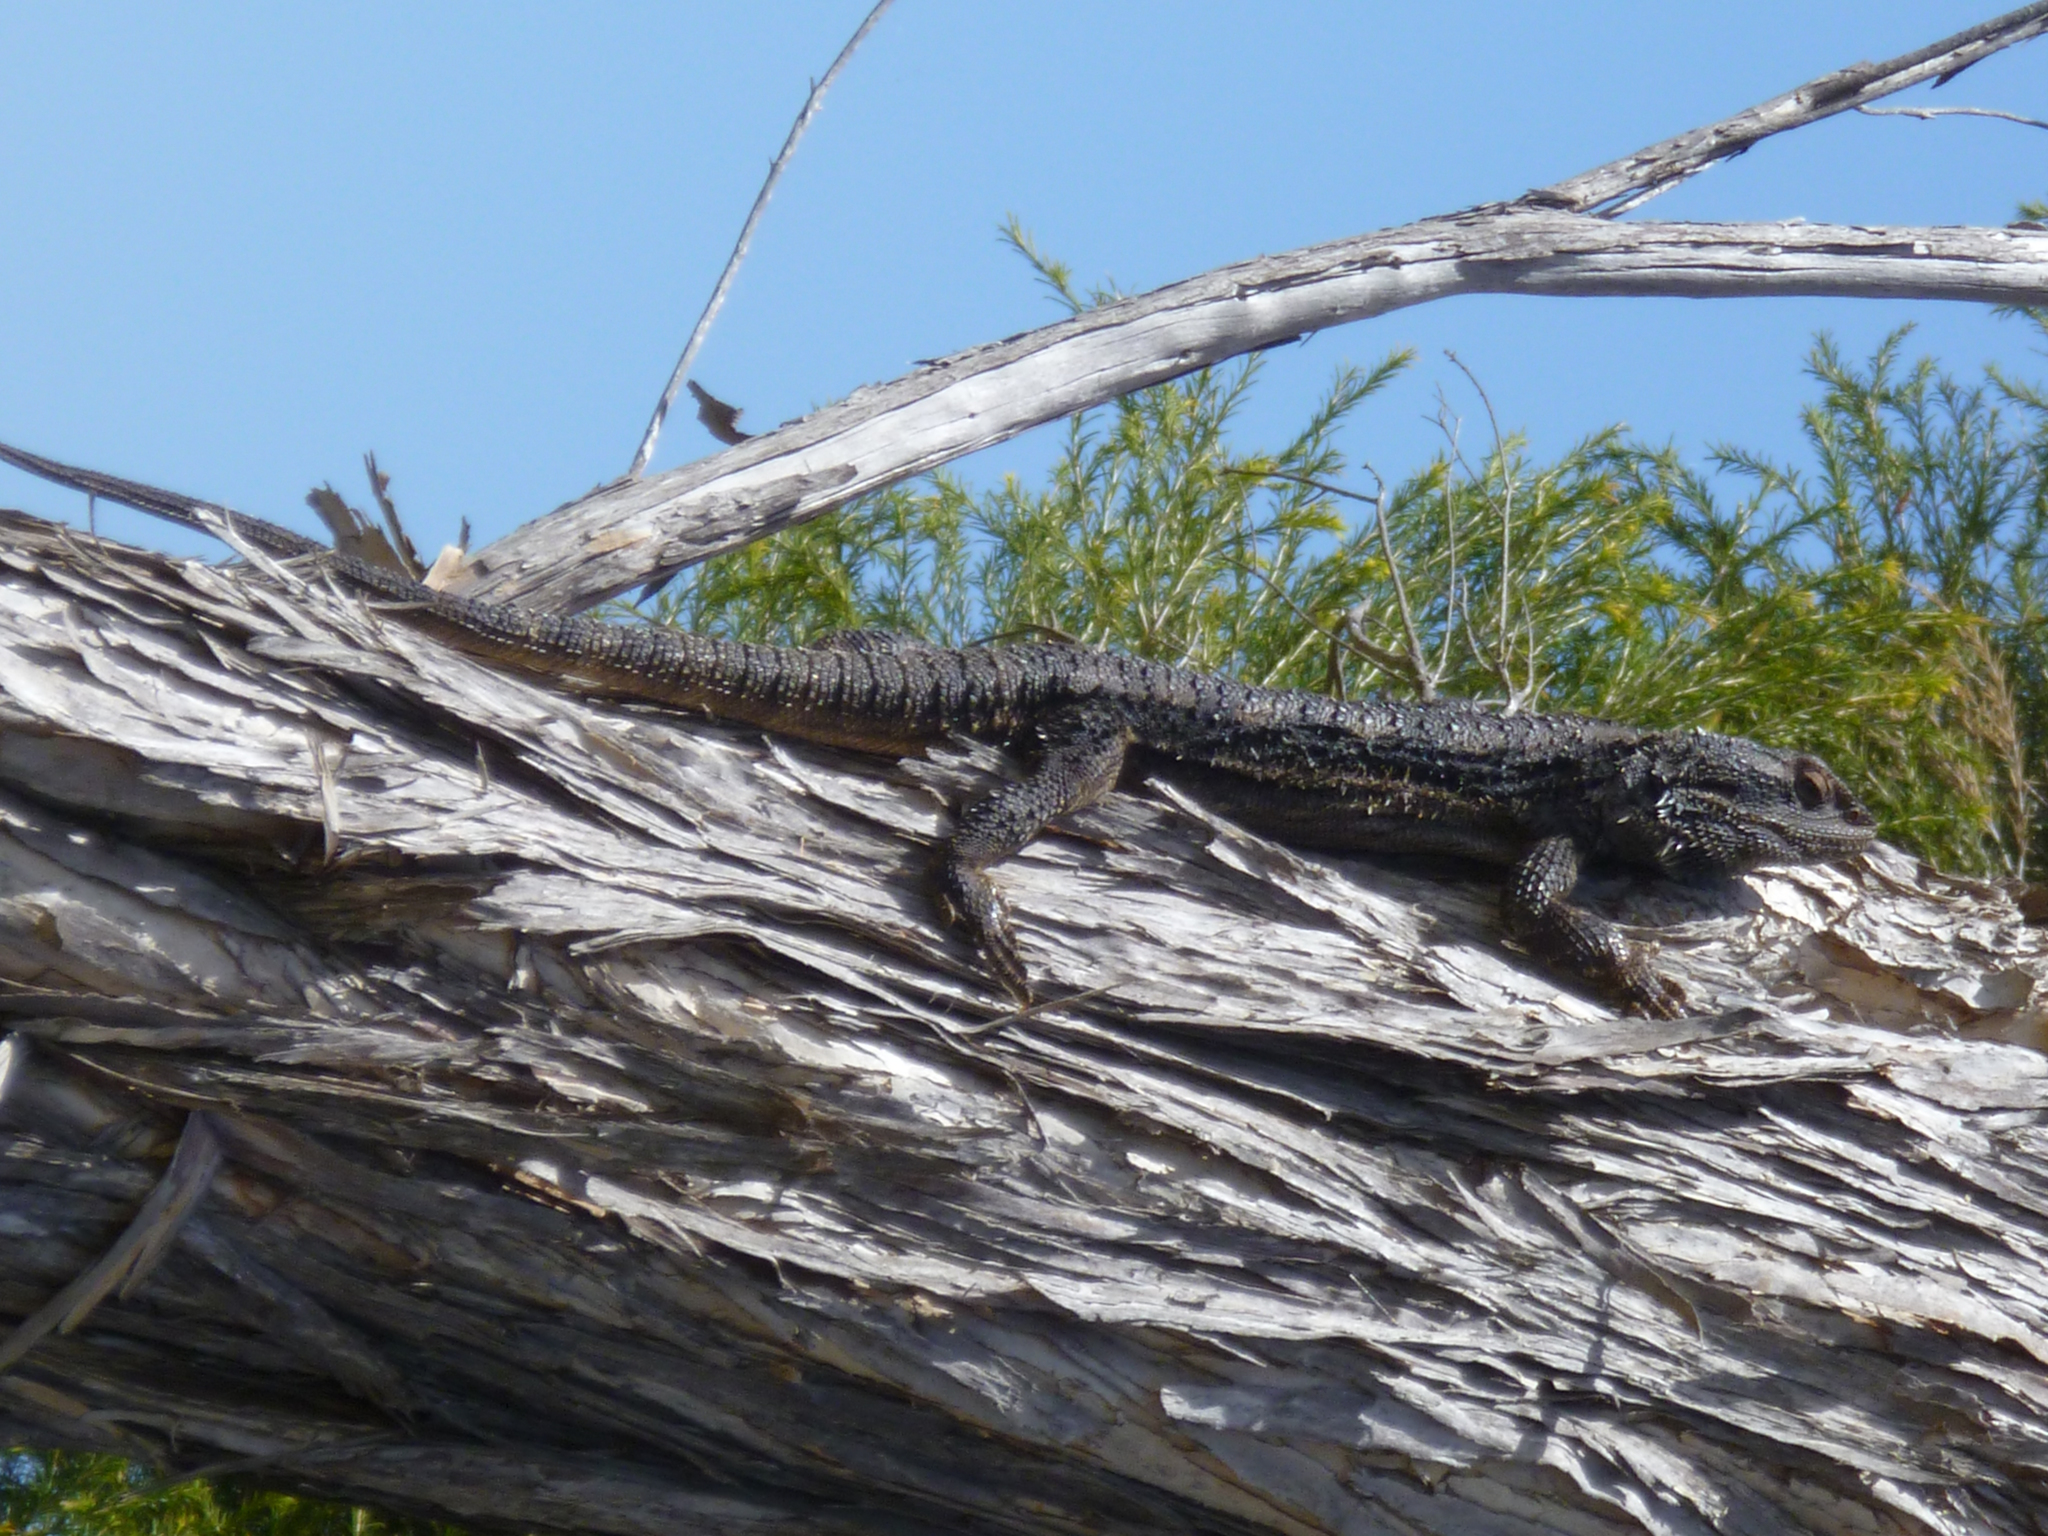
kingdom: Animalia
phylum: Chordata
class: Squamata
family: Agamidae
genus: Pogona
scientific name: Pogona barbata
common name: Bearded dragon
